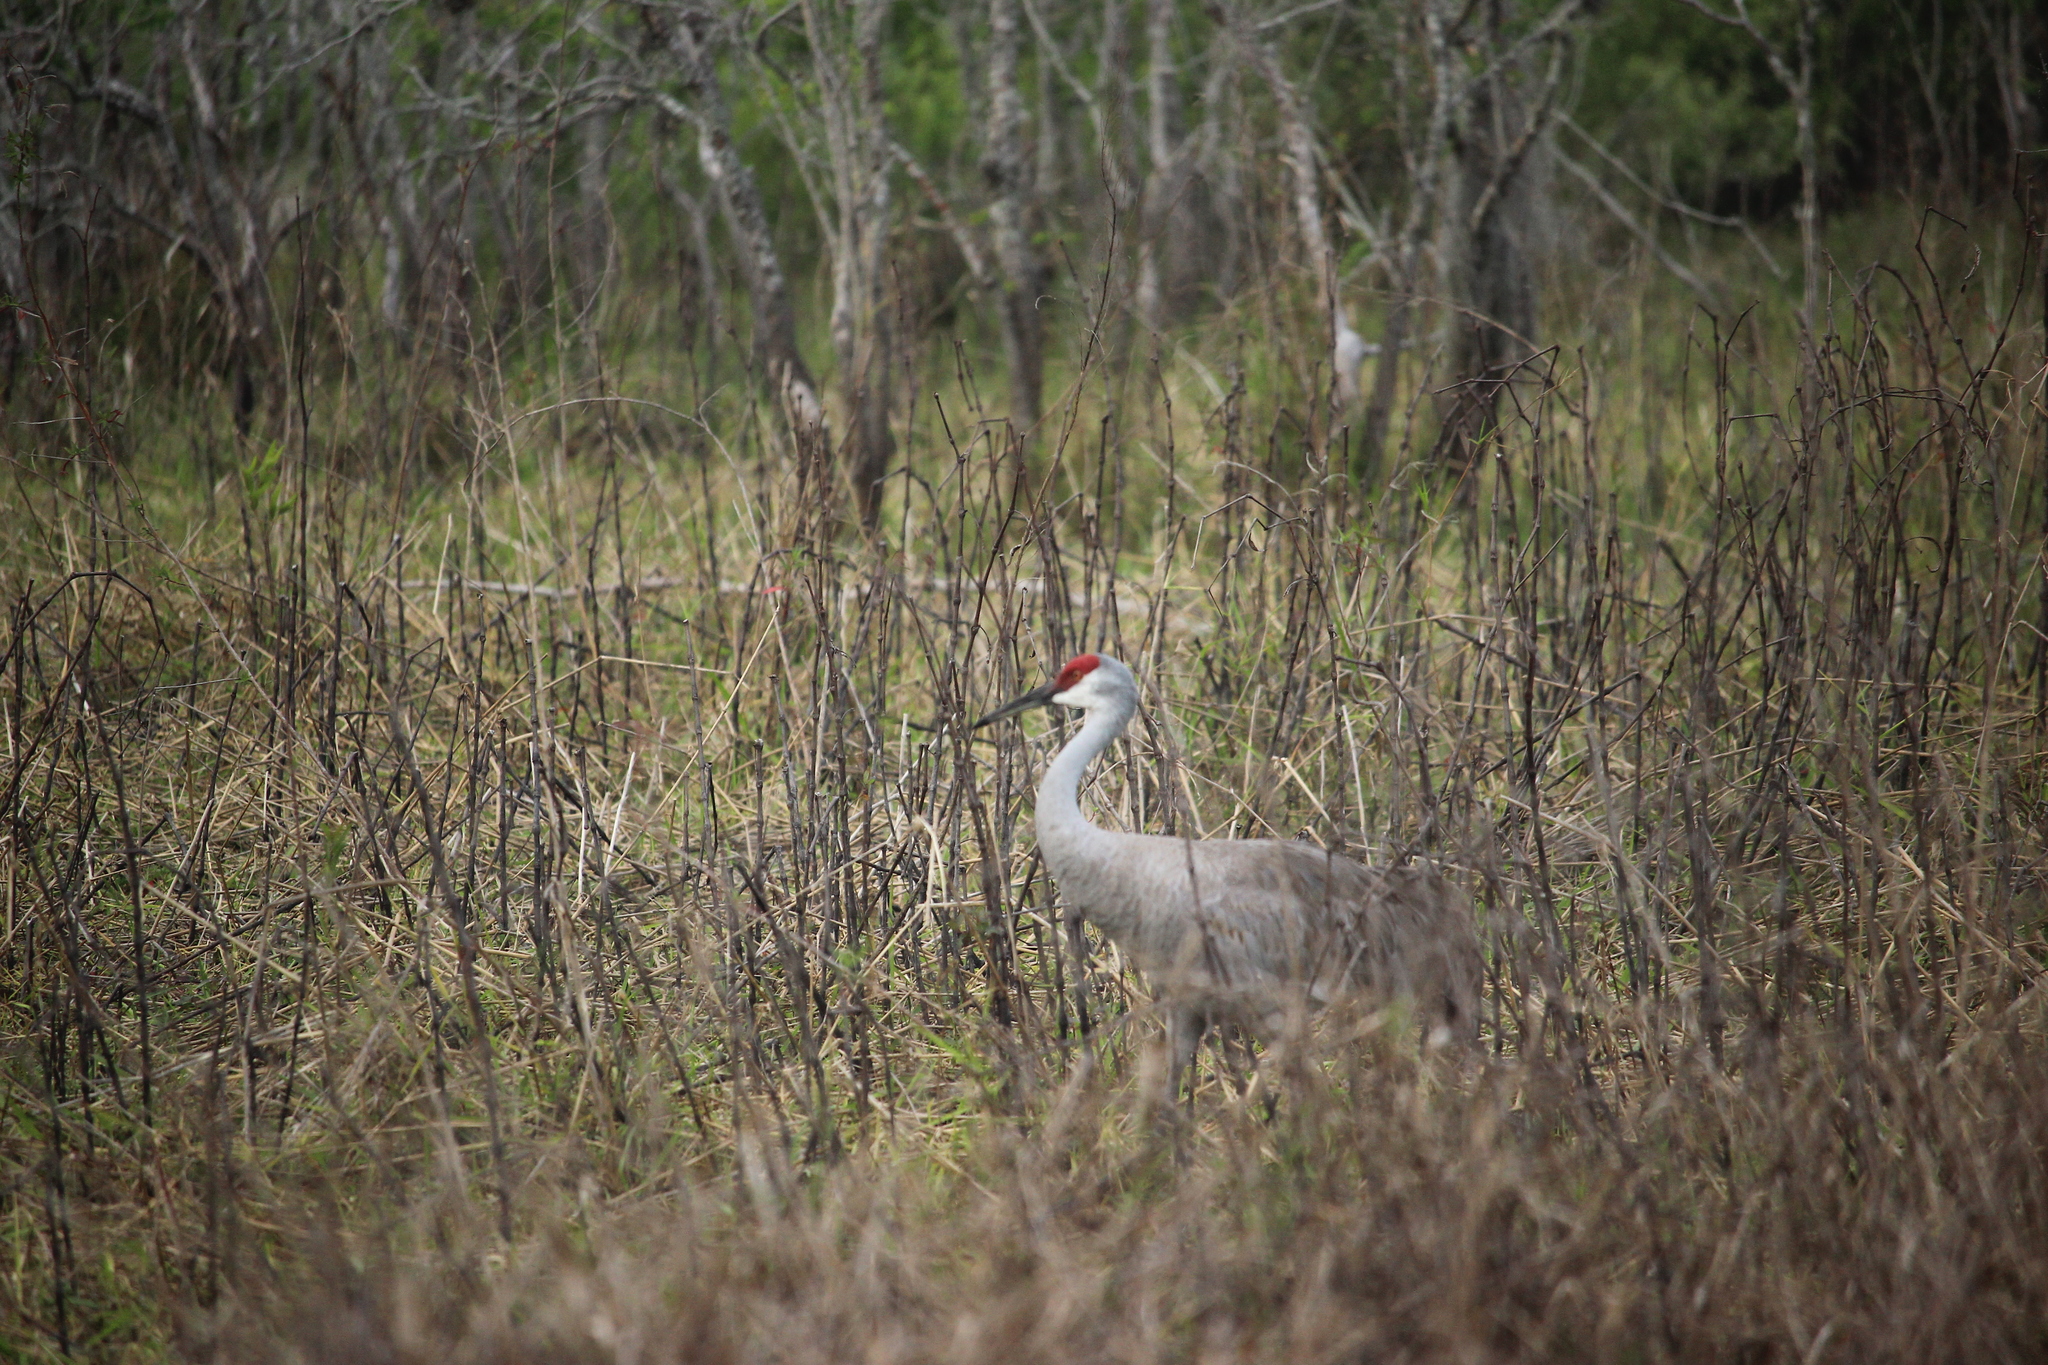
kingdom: Animalia
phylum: Chordata
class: Aves
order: Gruiformes
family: Gruidae
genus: Grus
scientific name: Grus canadensis
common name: Sandhill crane
